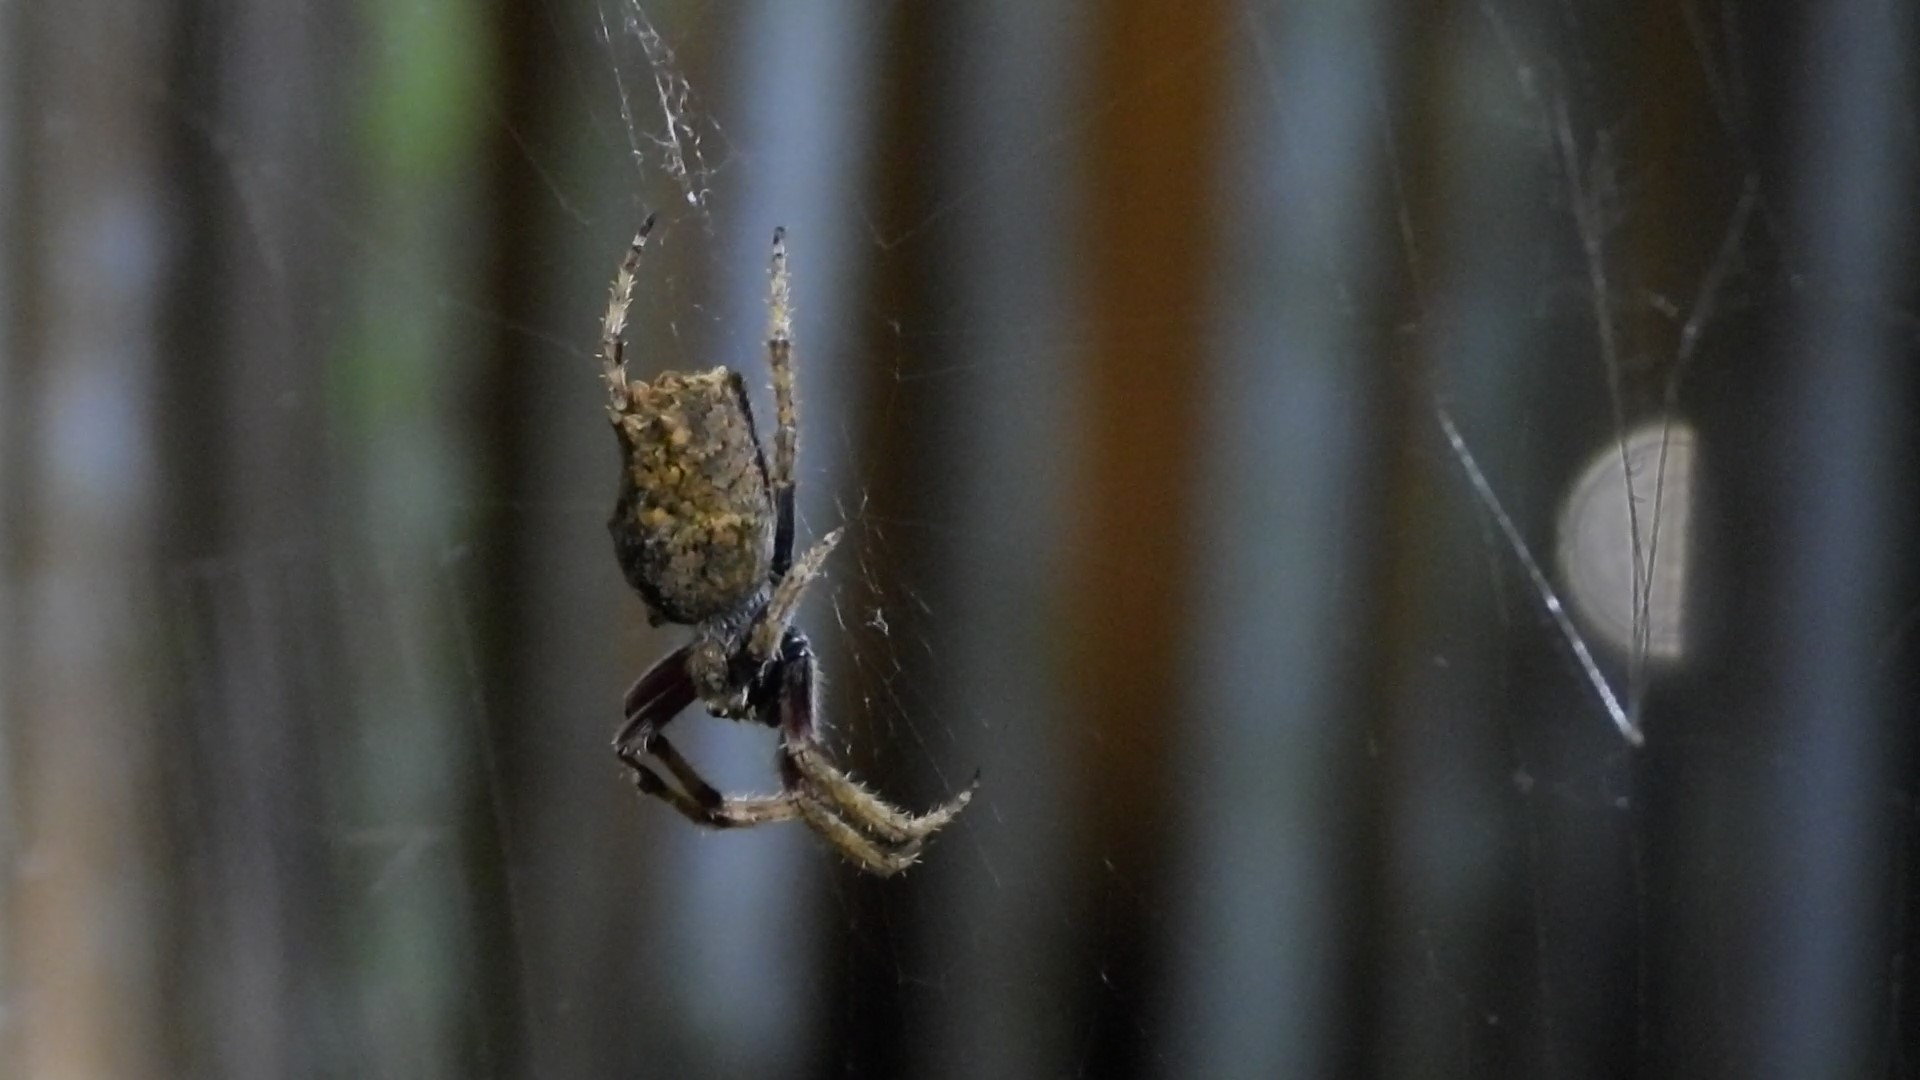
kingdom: Animalia
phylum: Arthropoda
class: Arachnida
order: Araneae
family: Araneidae
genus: Eriophora
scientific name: Eriophora pustulosa
